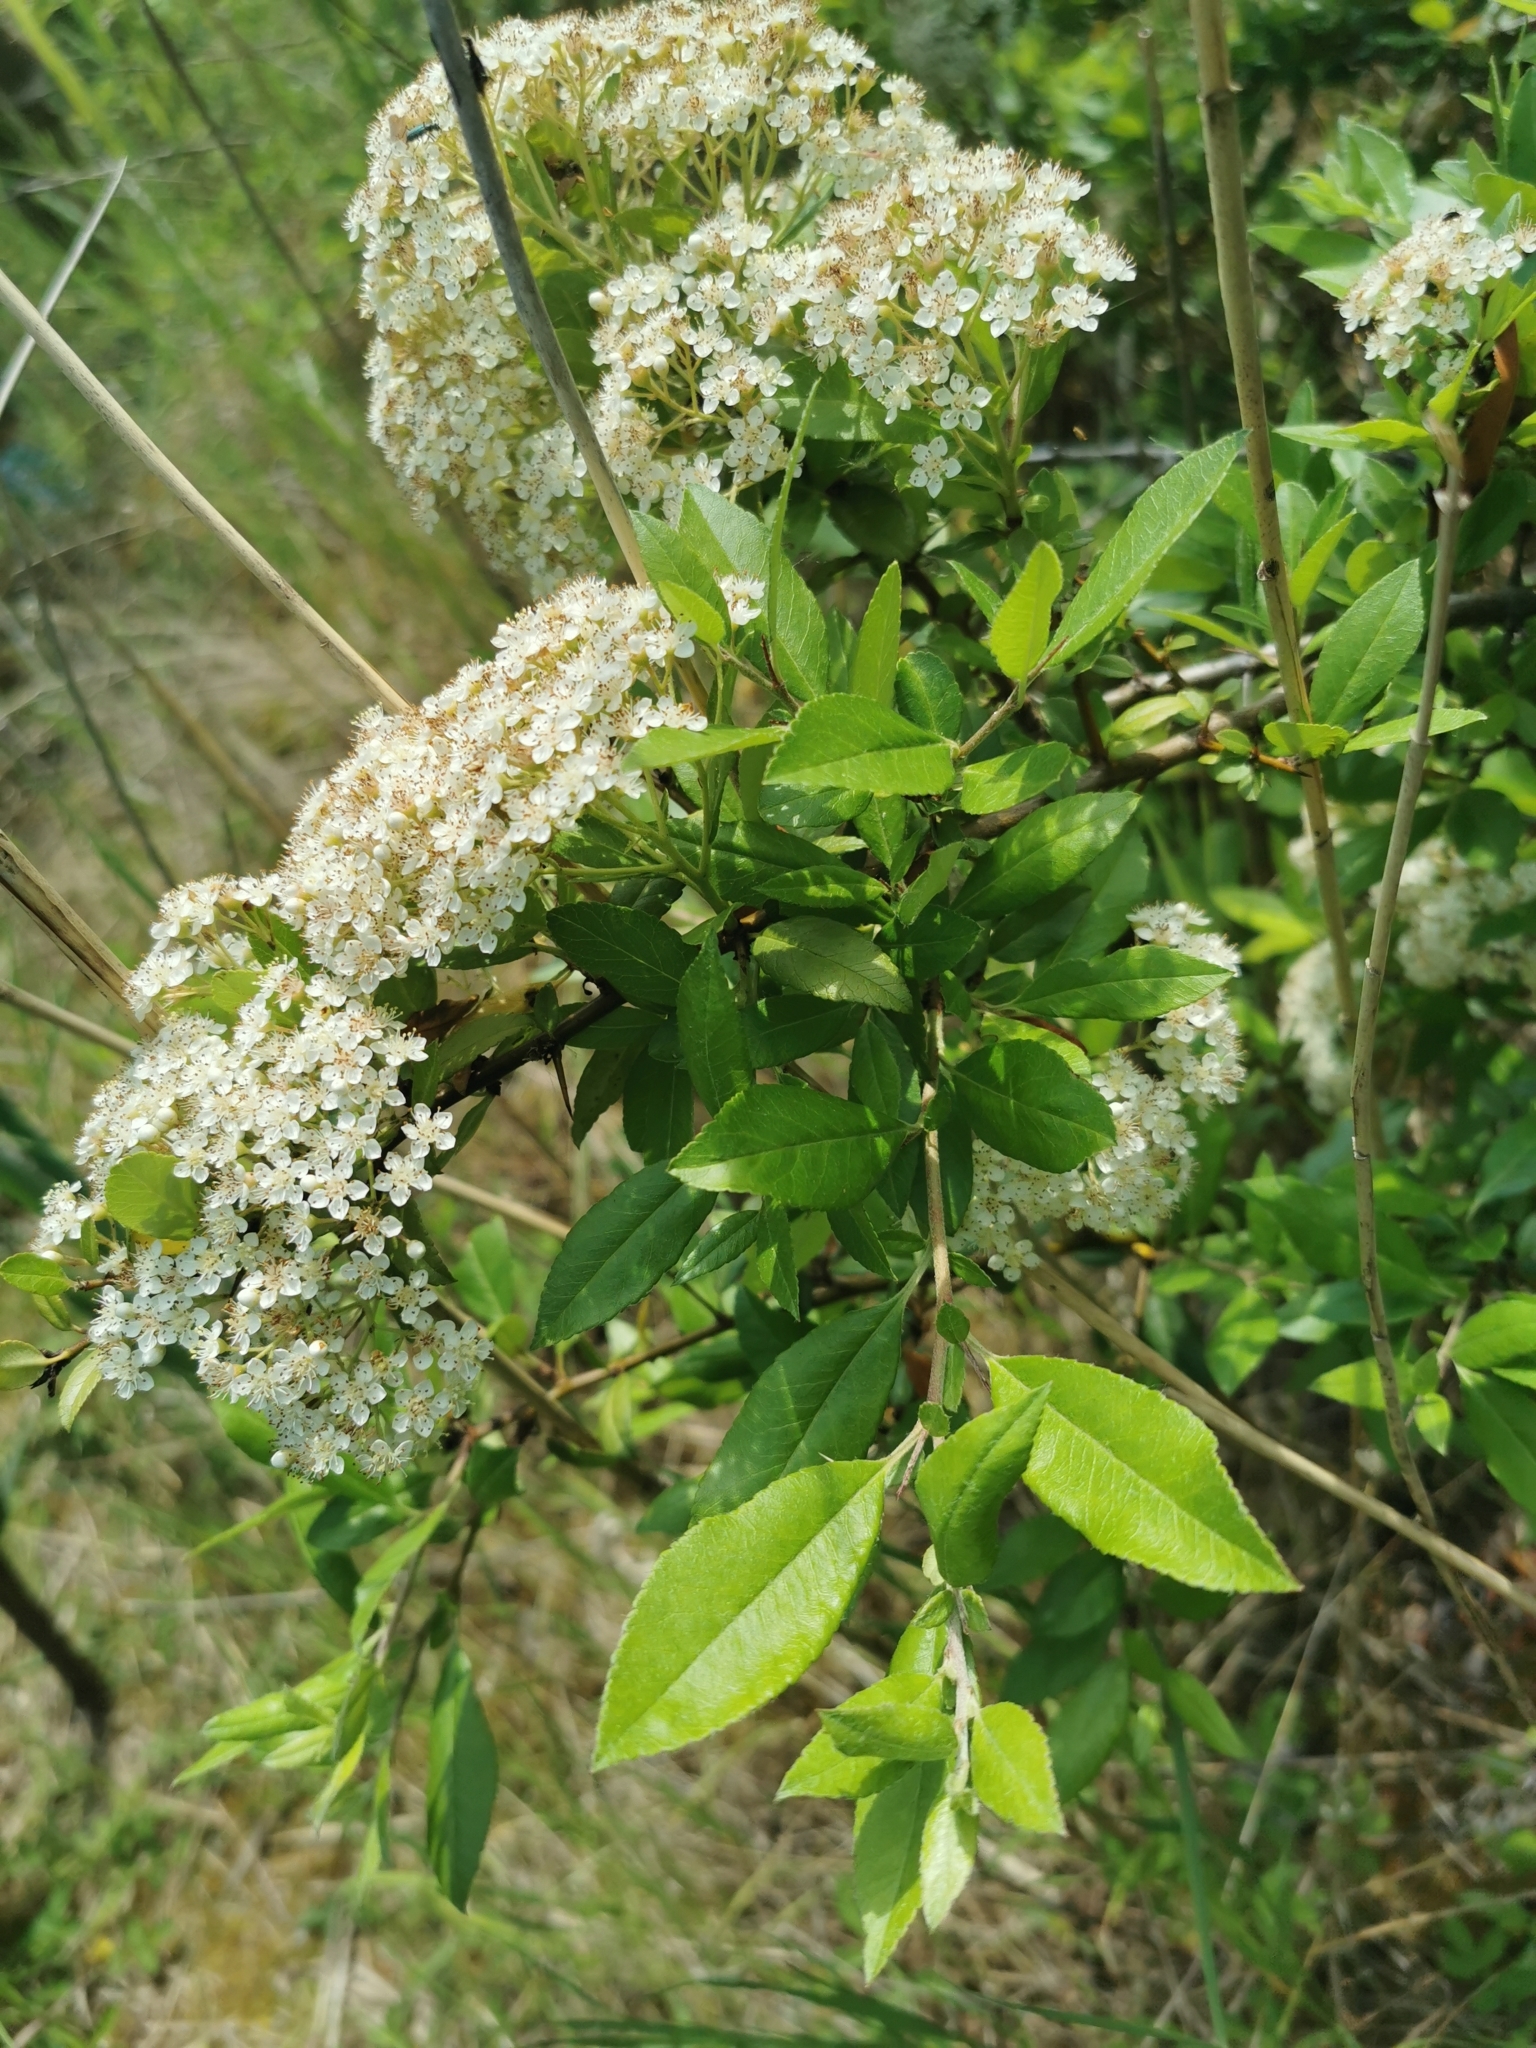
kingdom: Plantae
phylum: Tracheophyta
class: Magnoliopsida
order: Rosales
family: Rosaceae
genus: Pyracantha
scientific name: Pyracantha coccinea
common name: Firethorn
